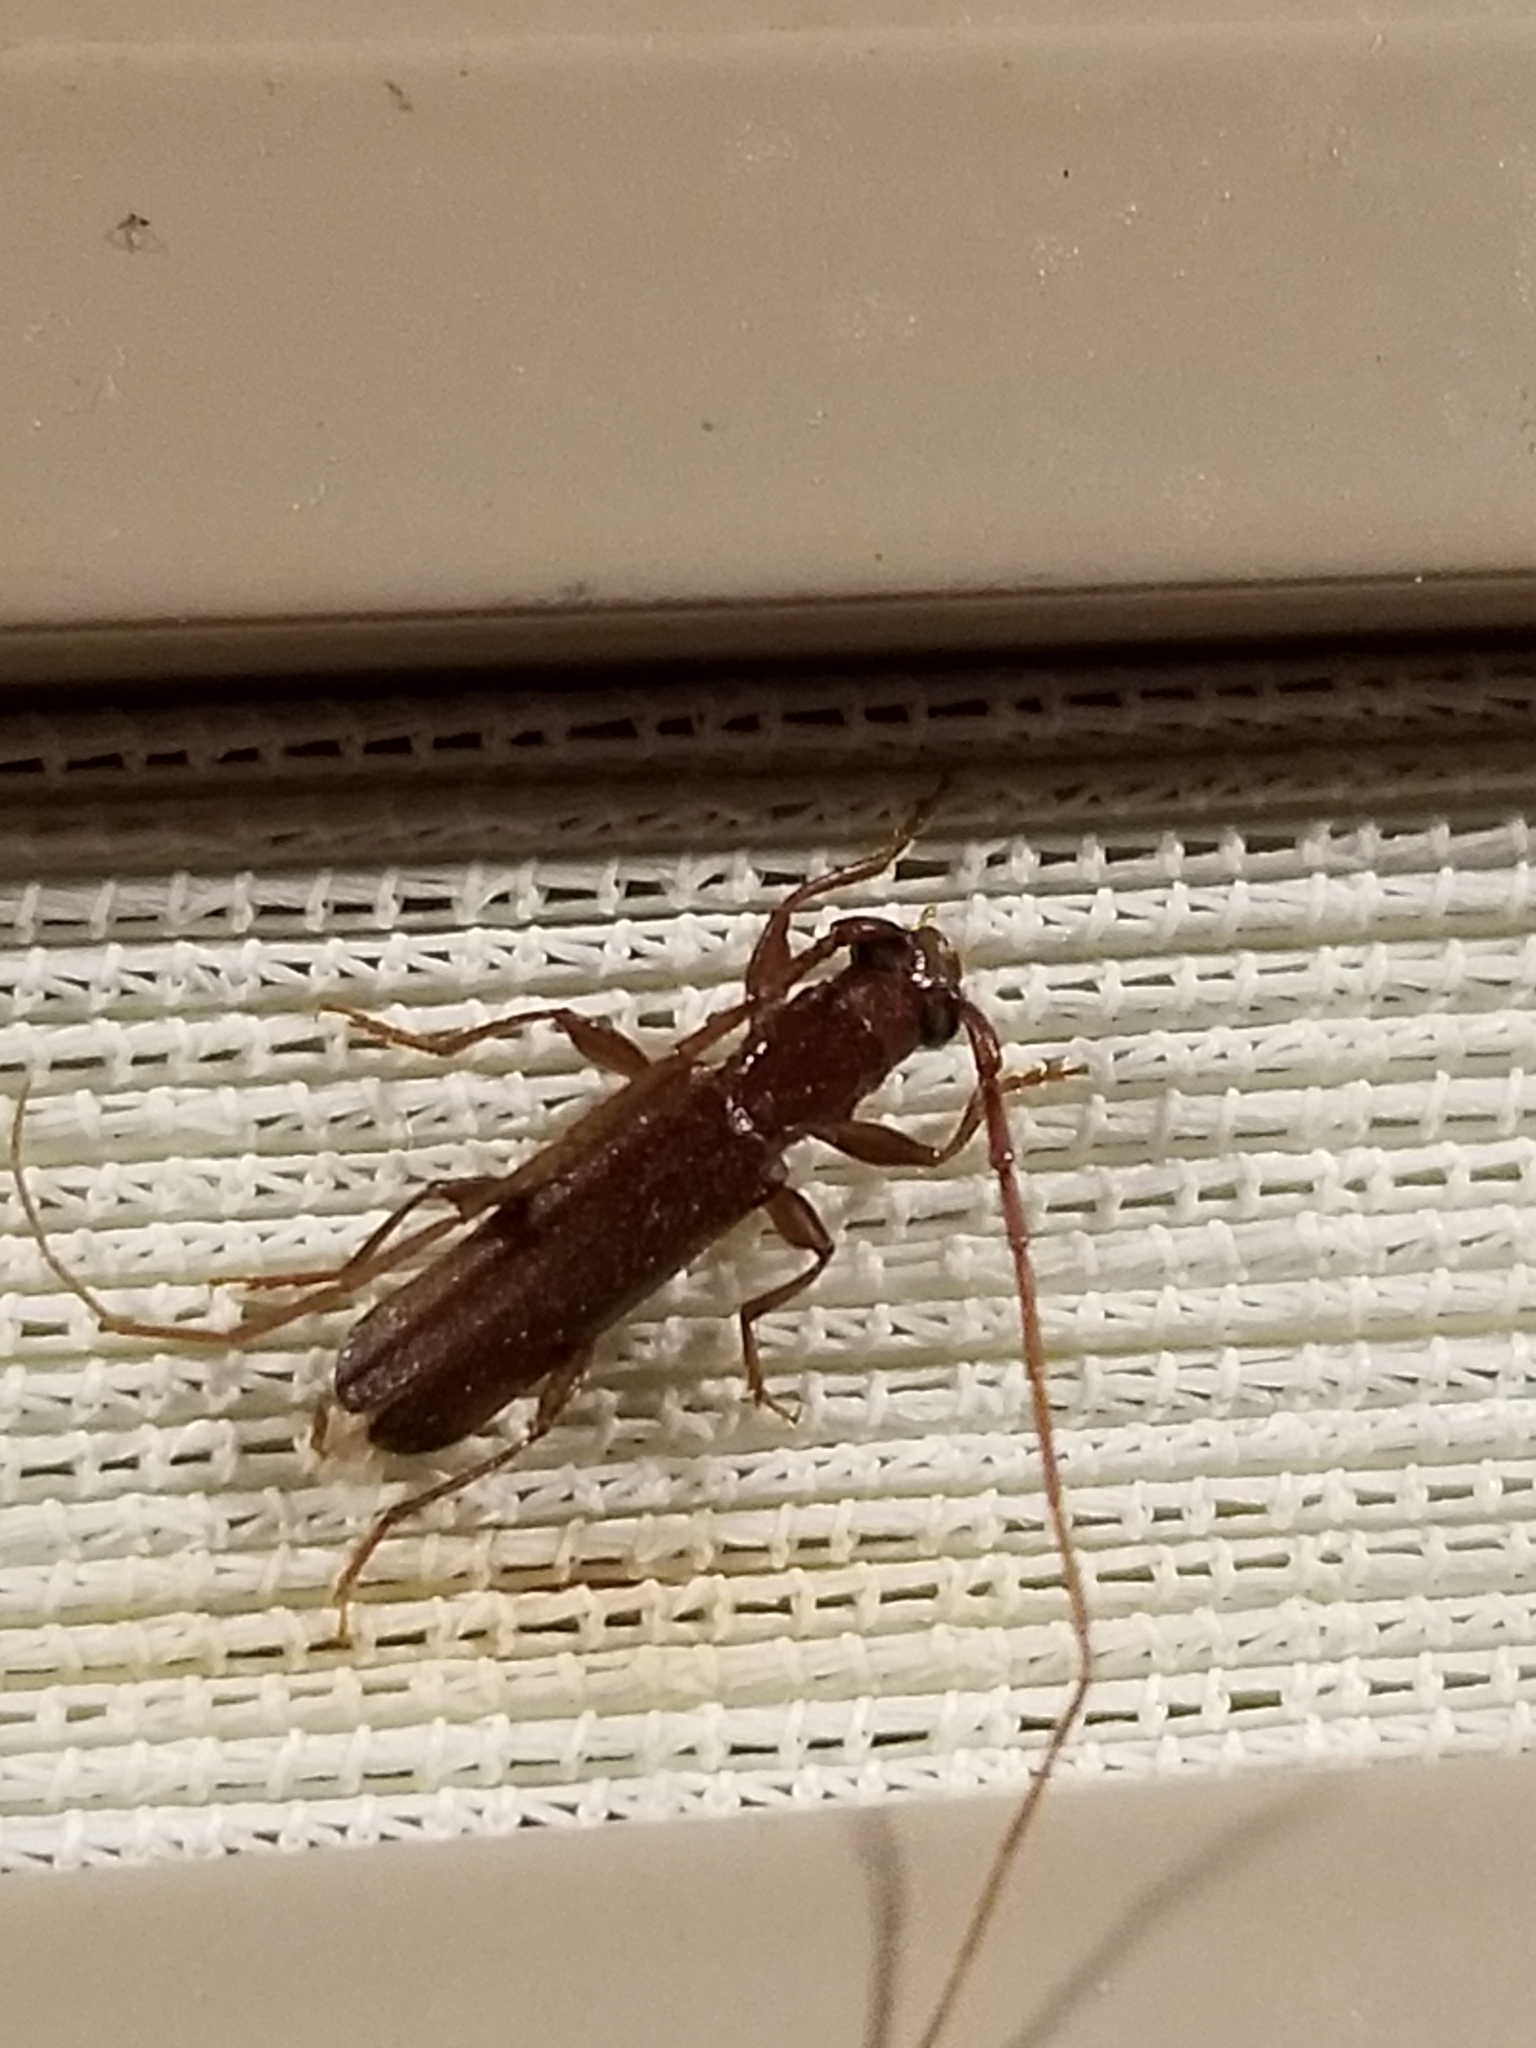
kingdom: Animalia
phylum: Arthropoda
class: Insecta
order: Coleoptera
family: Cerambycidae
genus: Malobidion
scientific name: Malobidion brunneum
